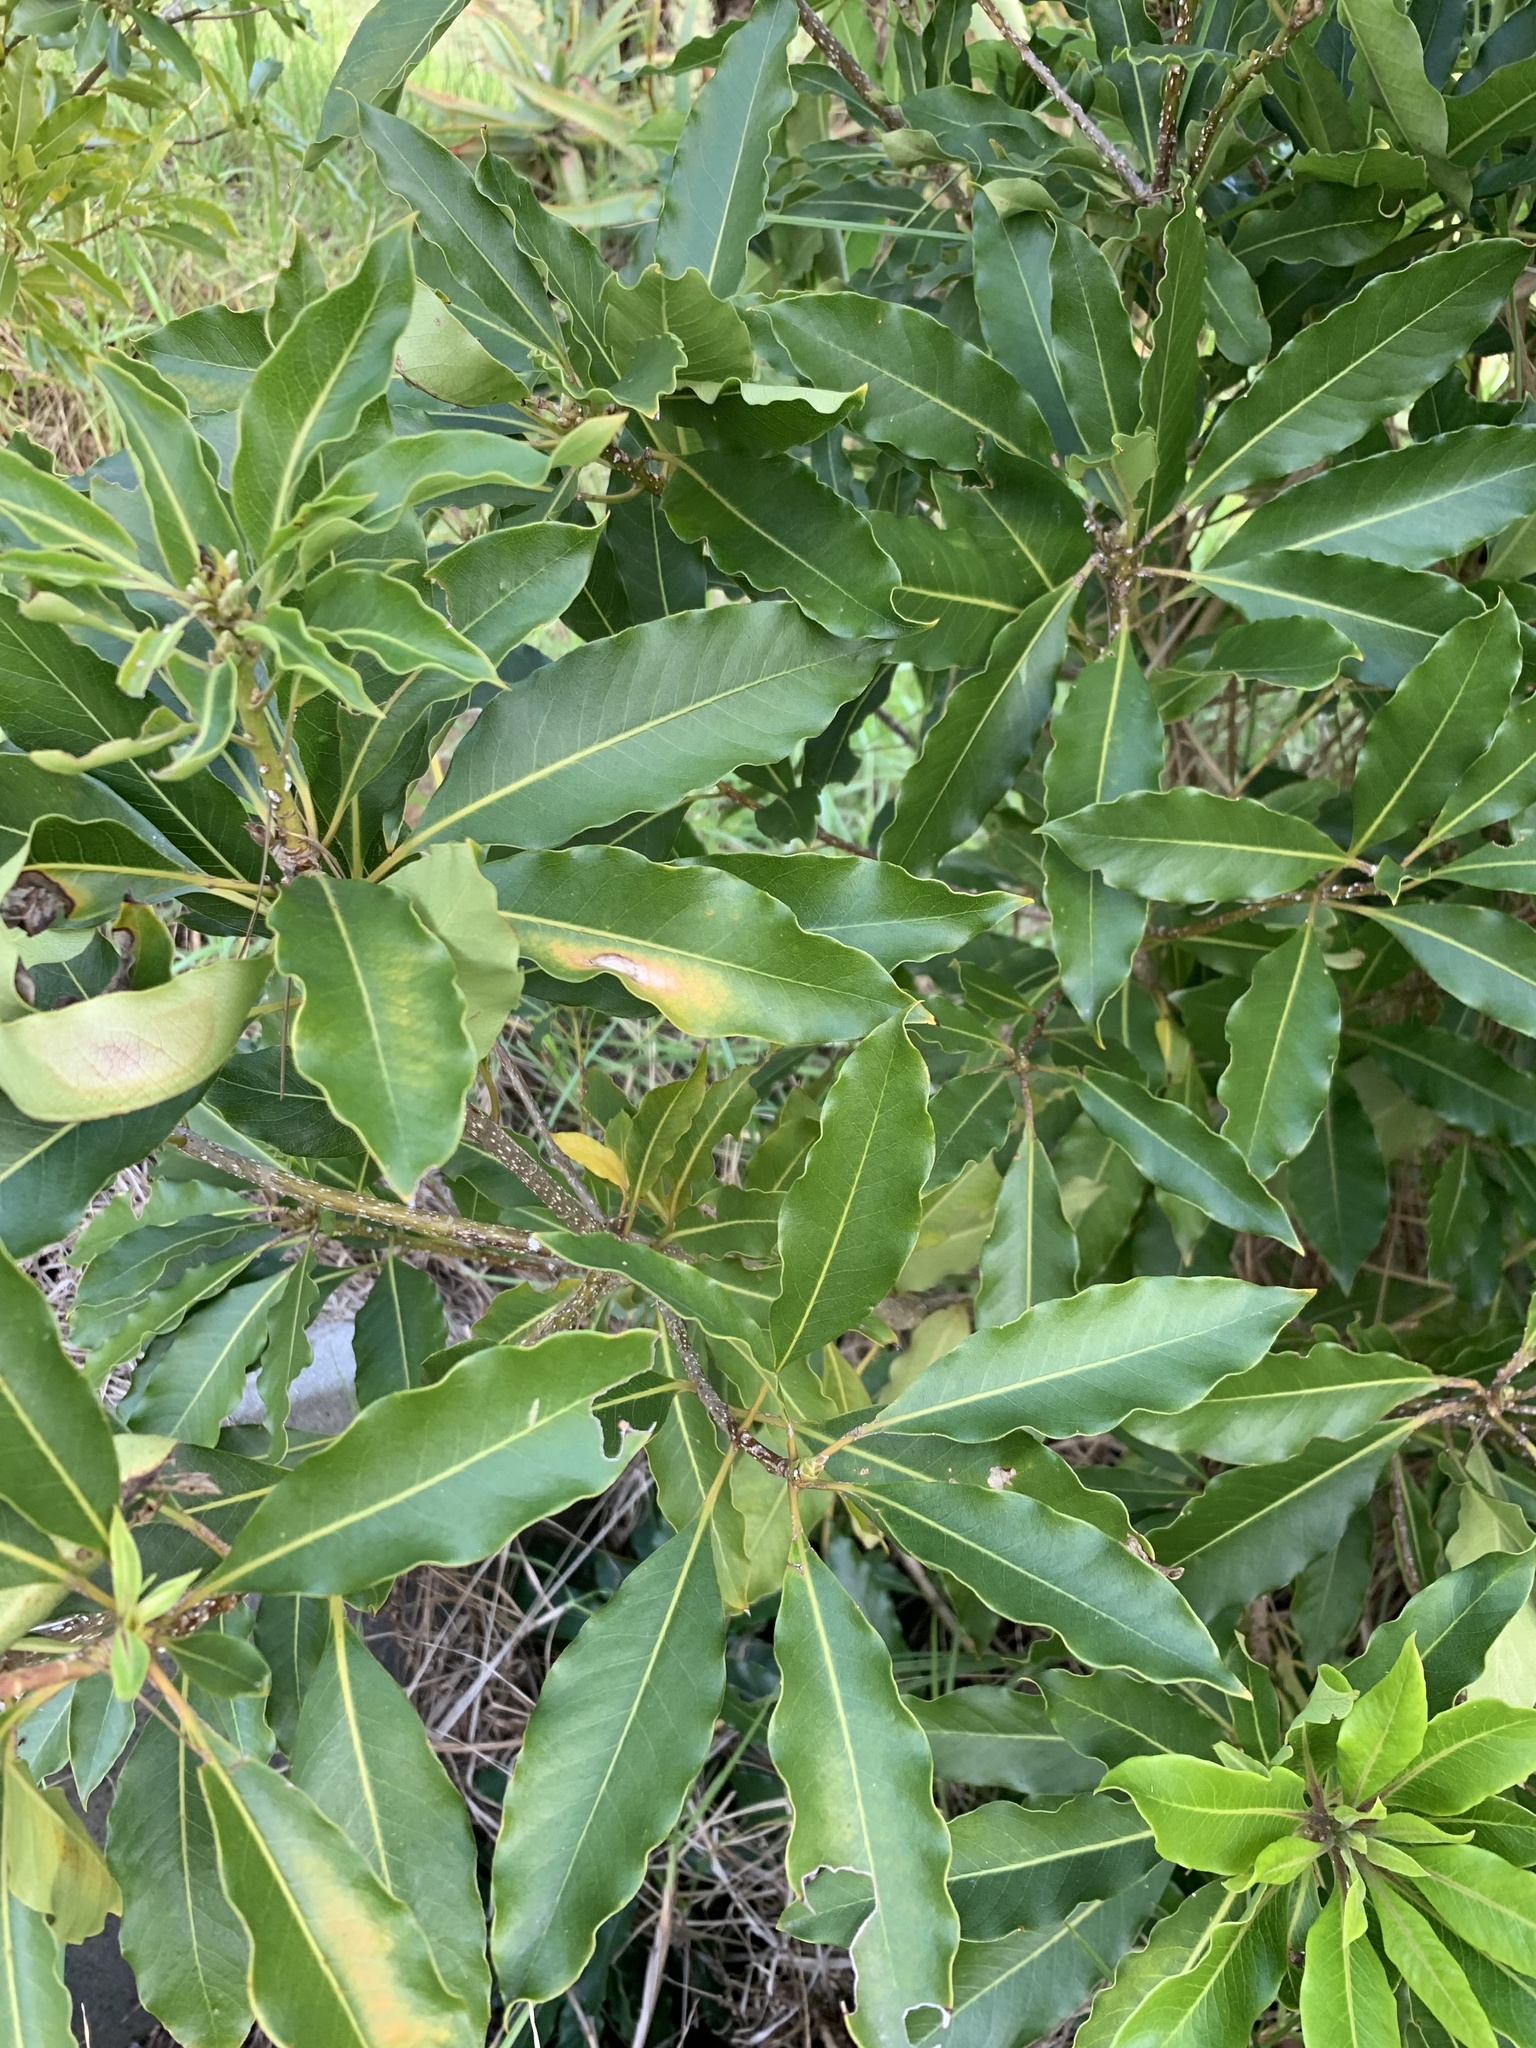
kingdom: Plantae
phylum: Tracheophyta
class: Magnoliopsida
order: Apiales
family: Pittosporaceae
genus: Pittosporum
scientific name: Pittosporum undulatum
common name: Australian cheesewood
